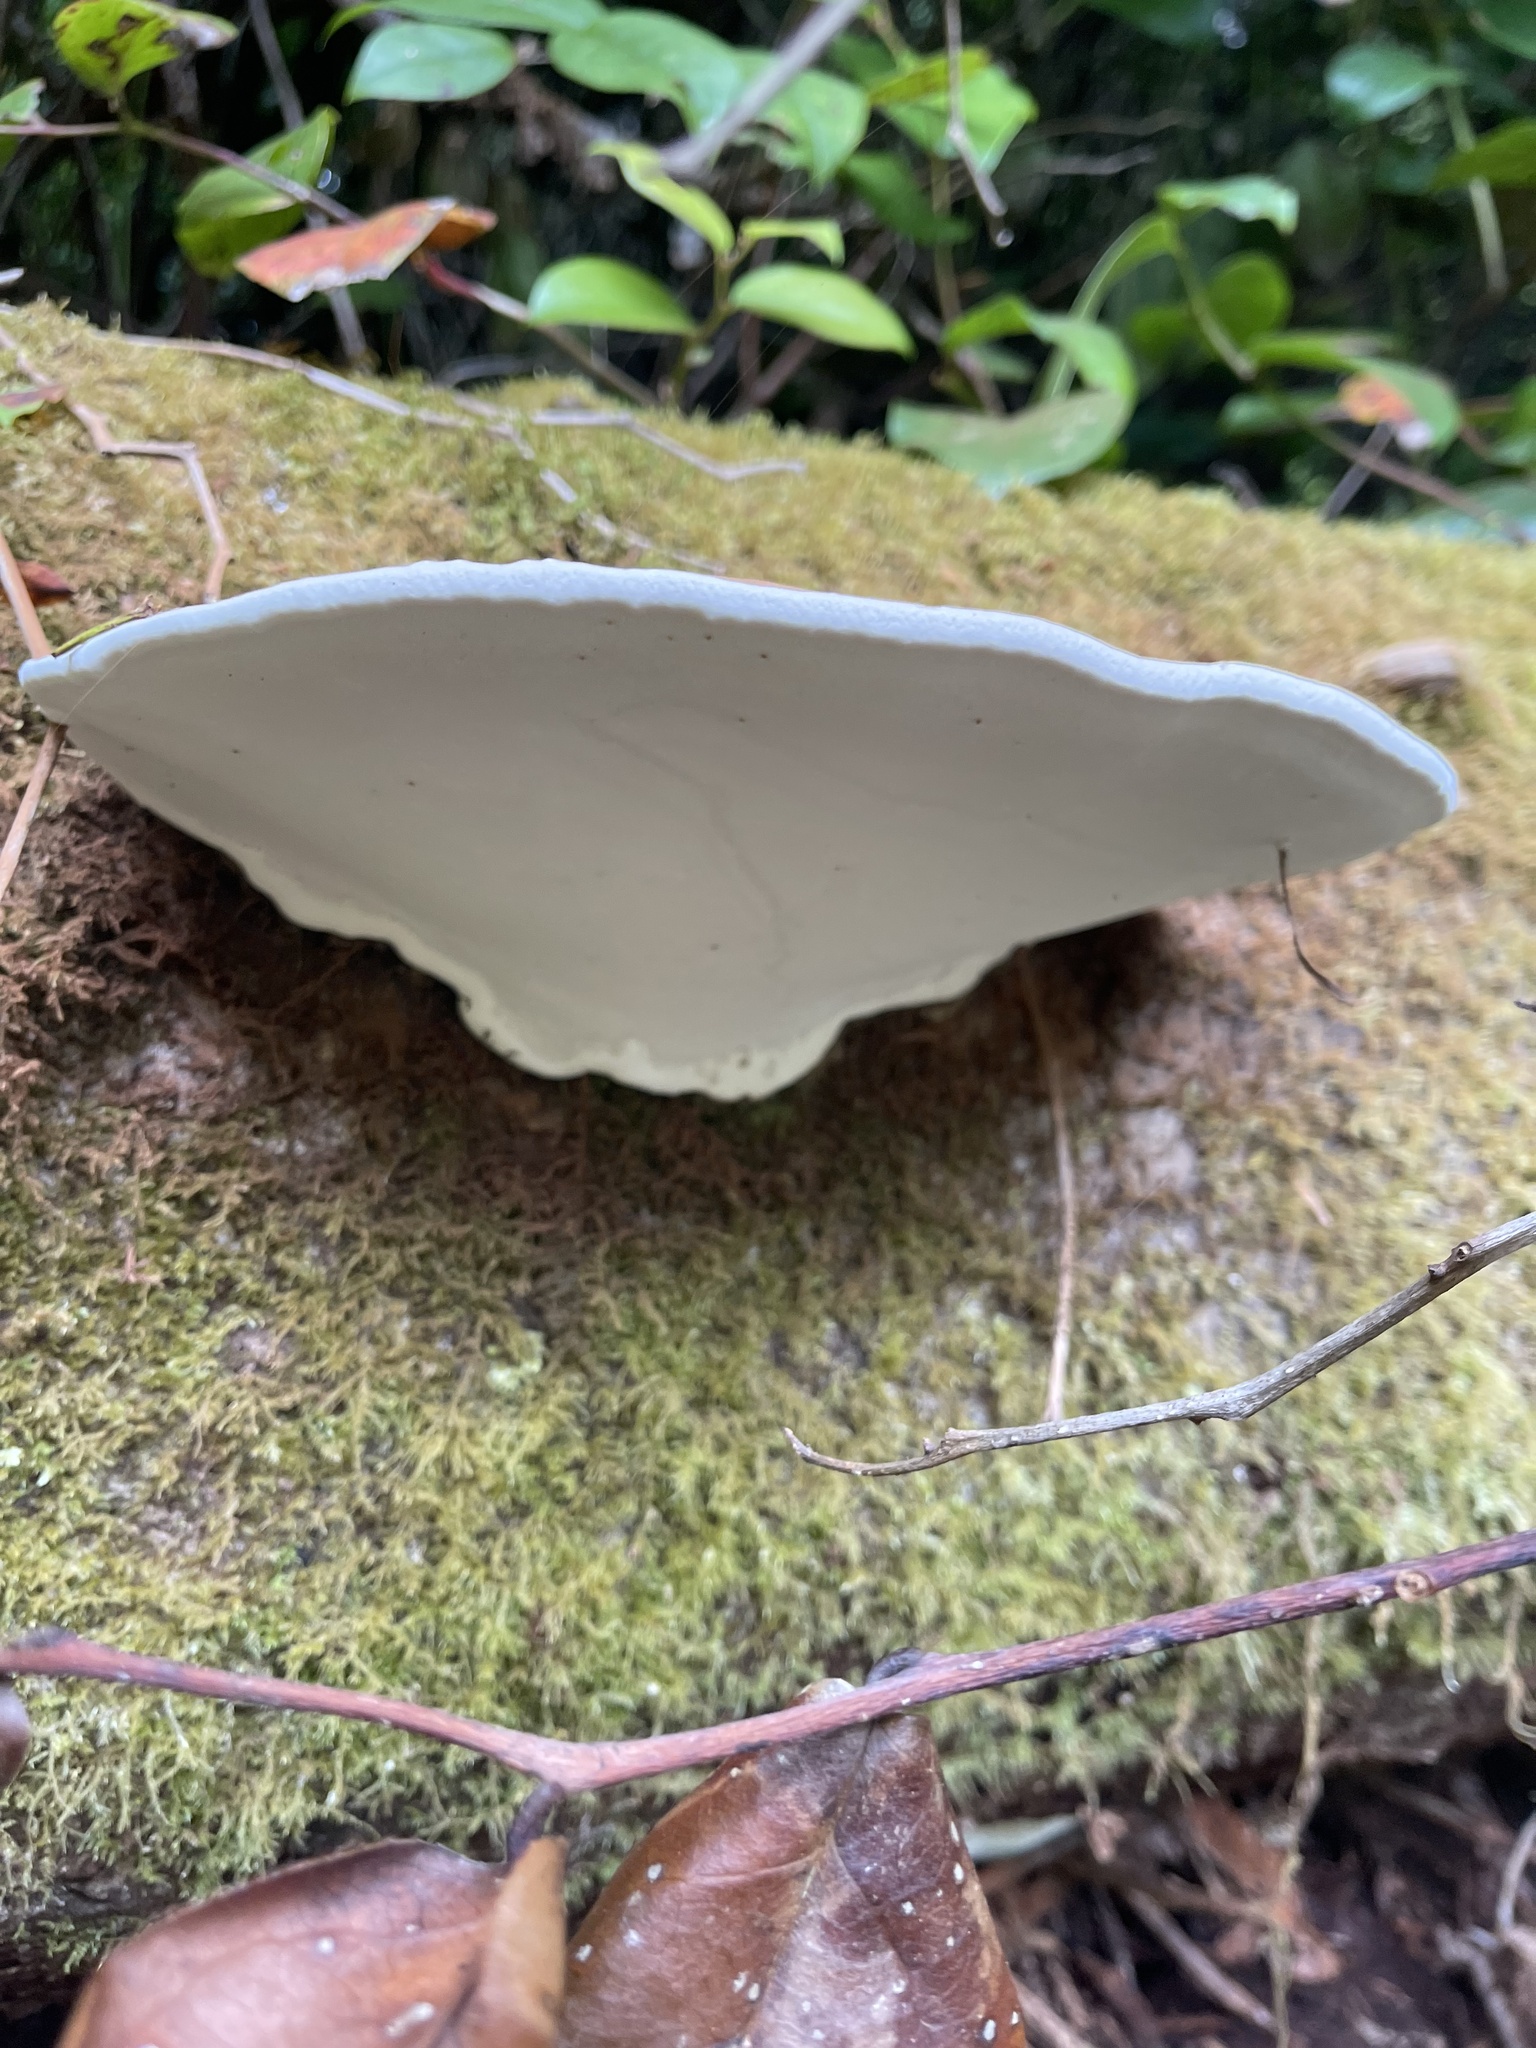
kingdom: Fungi
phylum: Basidiomycota
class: Agaricomycetes
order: Polyporales
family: Polyporaceae
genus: Ganoderma
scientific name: Ganoderma applanatum
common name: Artist's bracket
